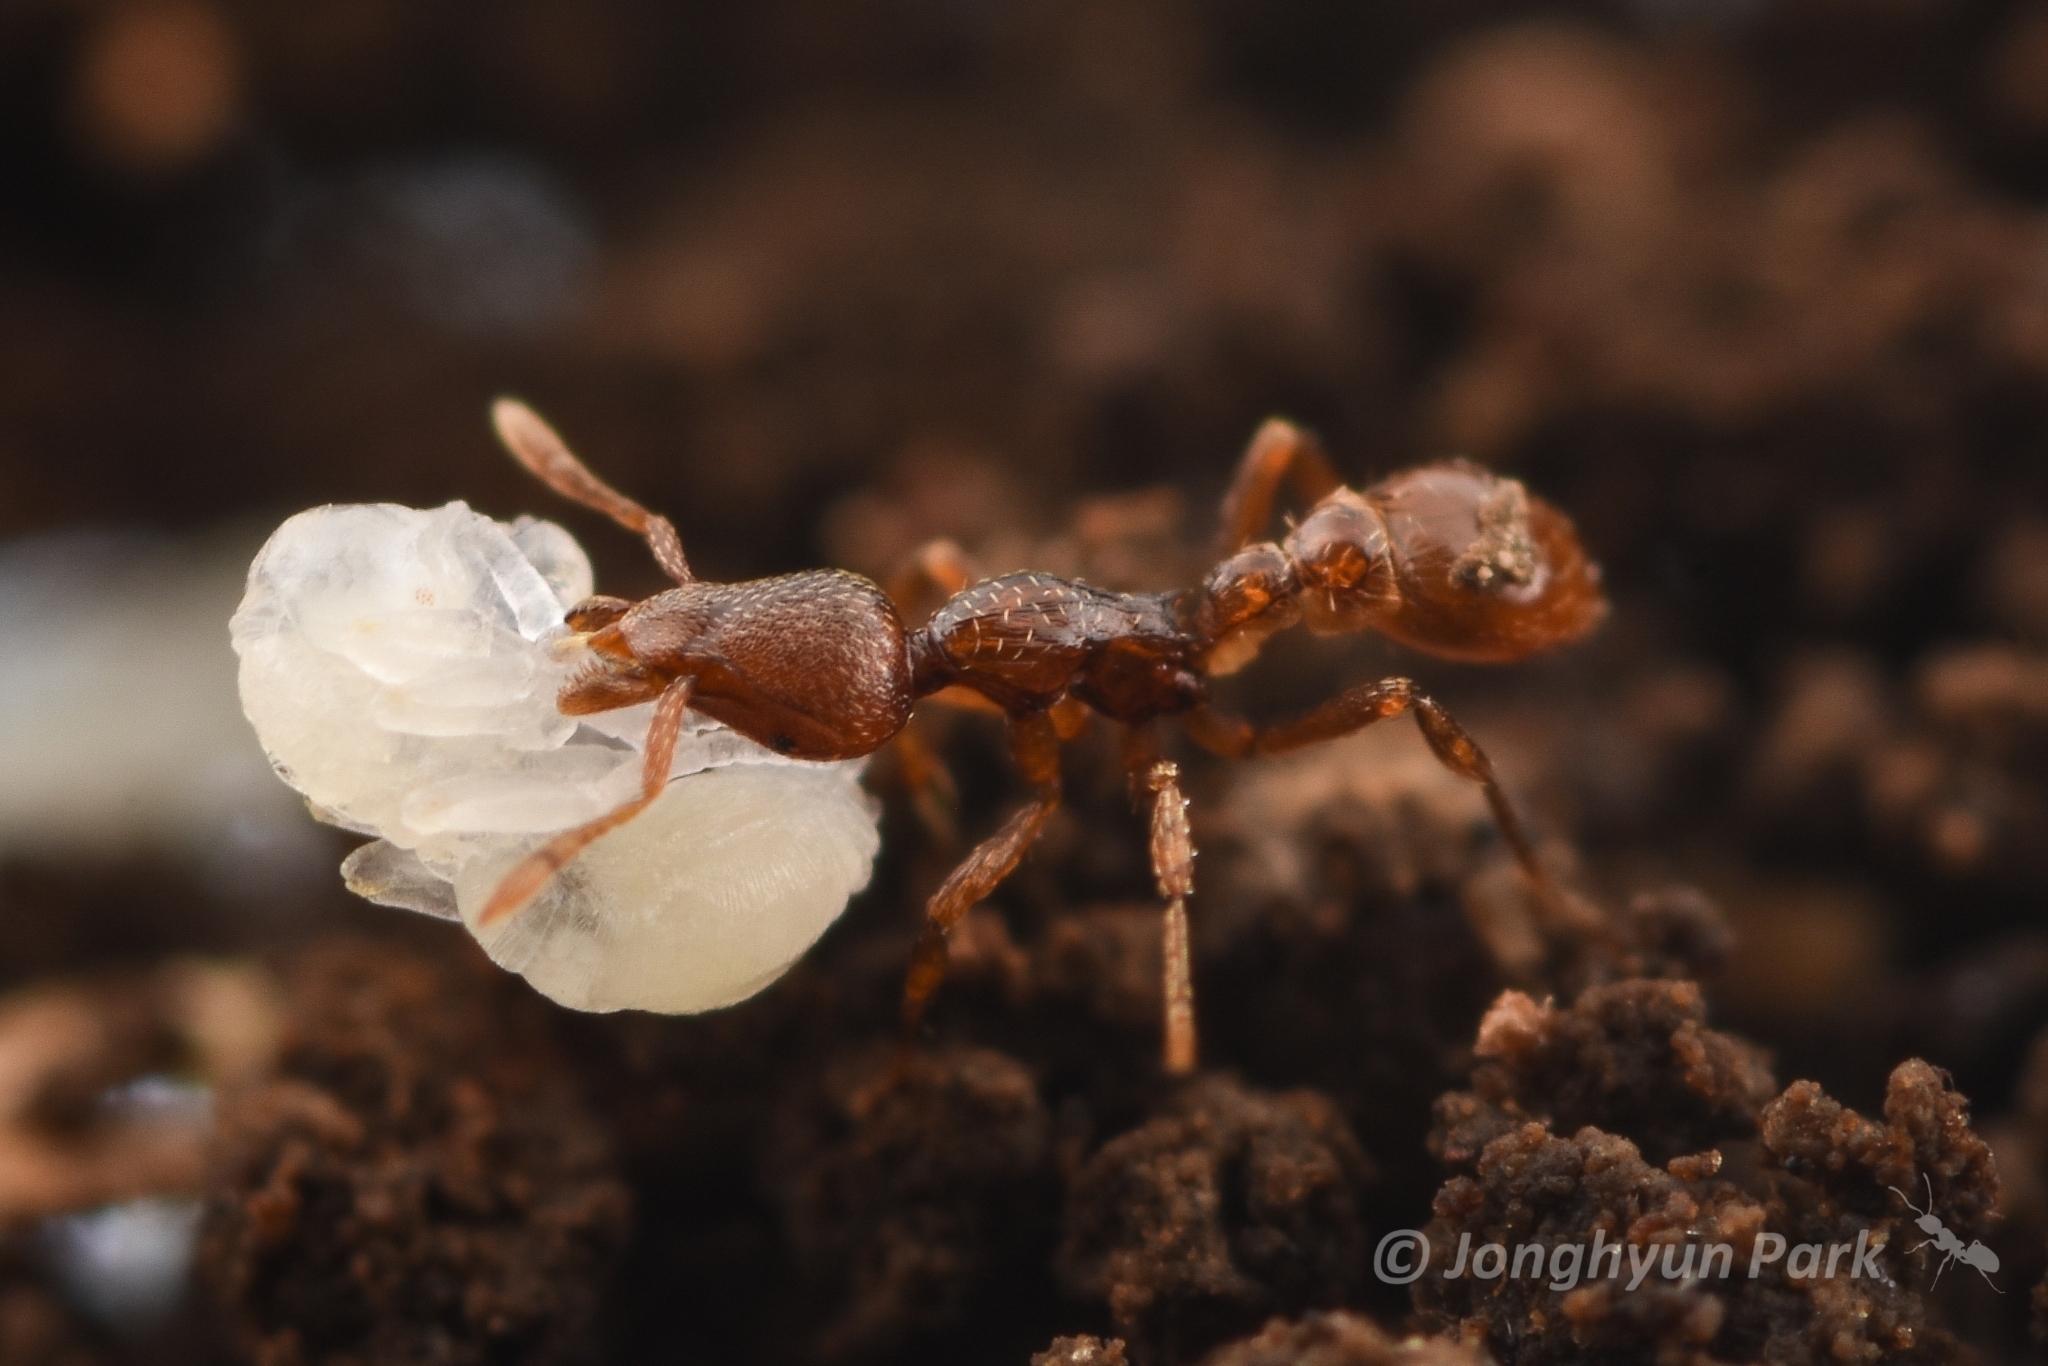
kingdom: Animalia
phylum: Arthropoda
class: Insecta
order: Hymenoptera
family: Formicidae
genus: Strumigenys
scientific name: Strumigenys
